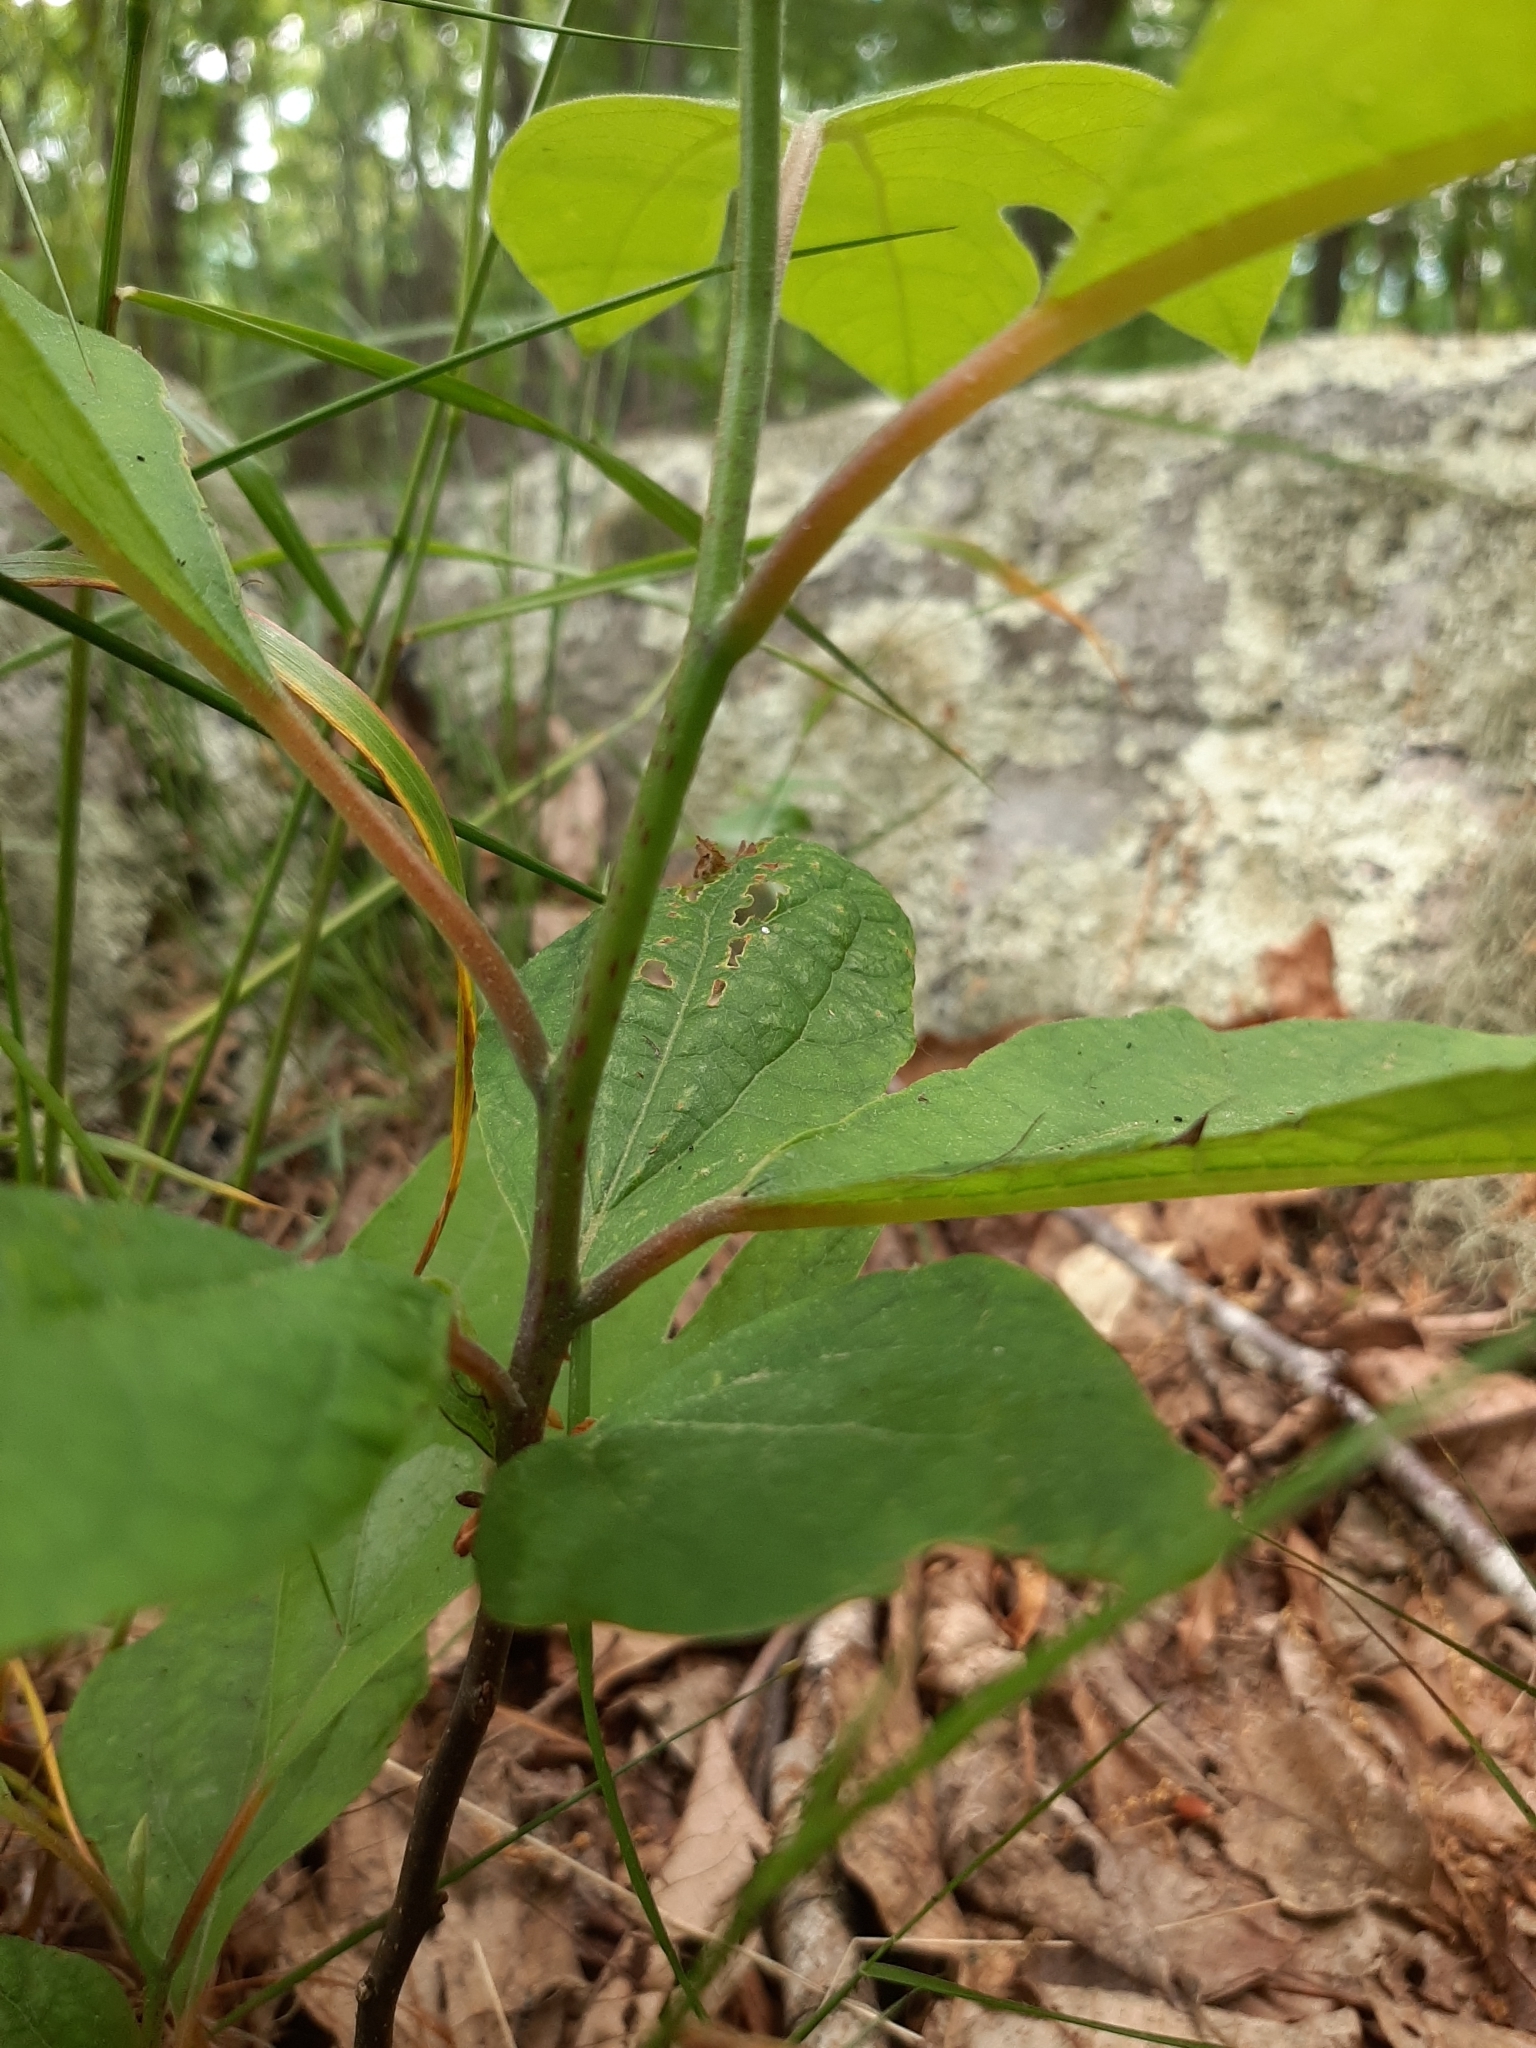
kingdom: Plantae
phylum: Tracheophyta
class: Magnoliopsida
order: Laurales
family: Lauraceae
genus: Sassafras
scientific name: Sassafras albidum
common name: Sassafras
